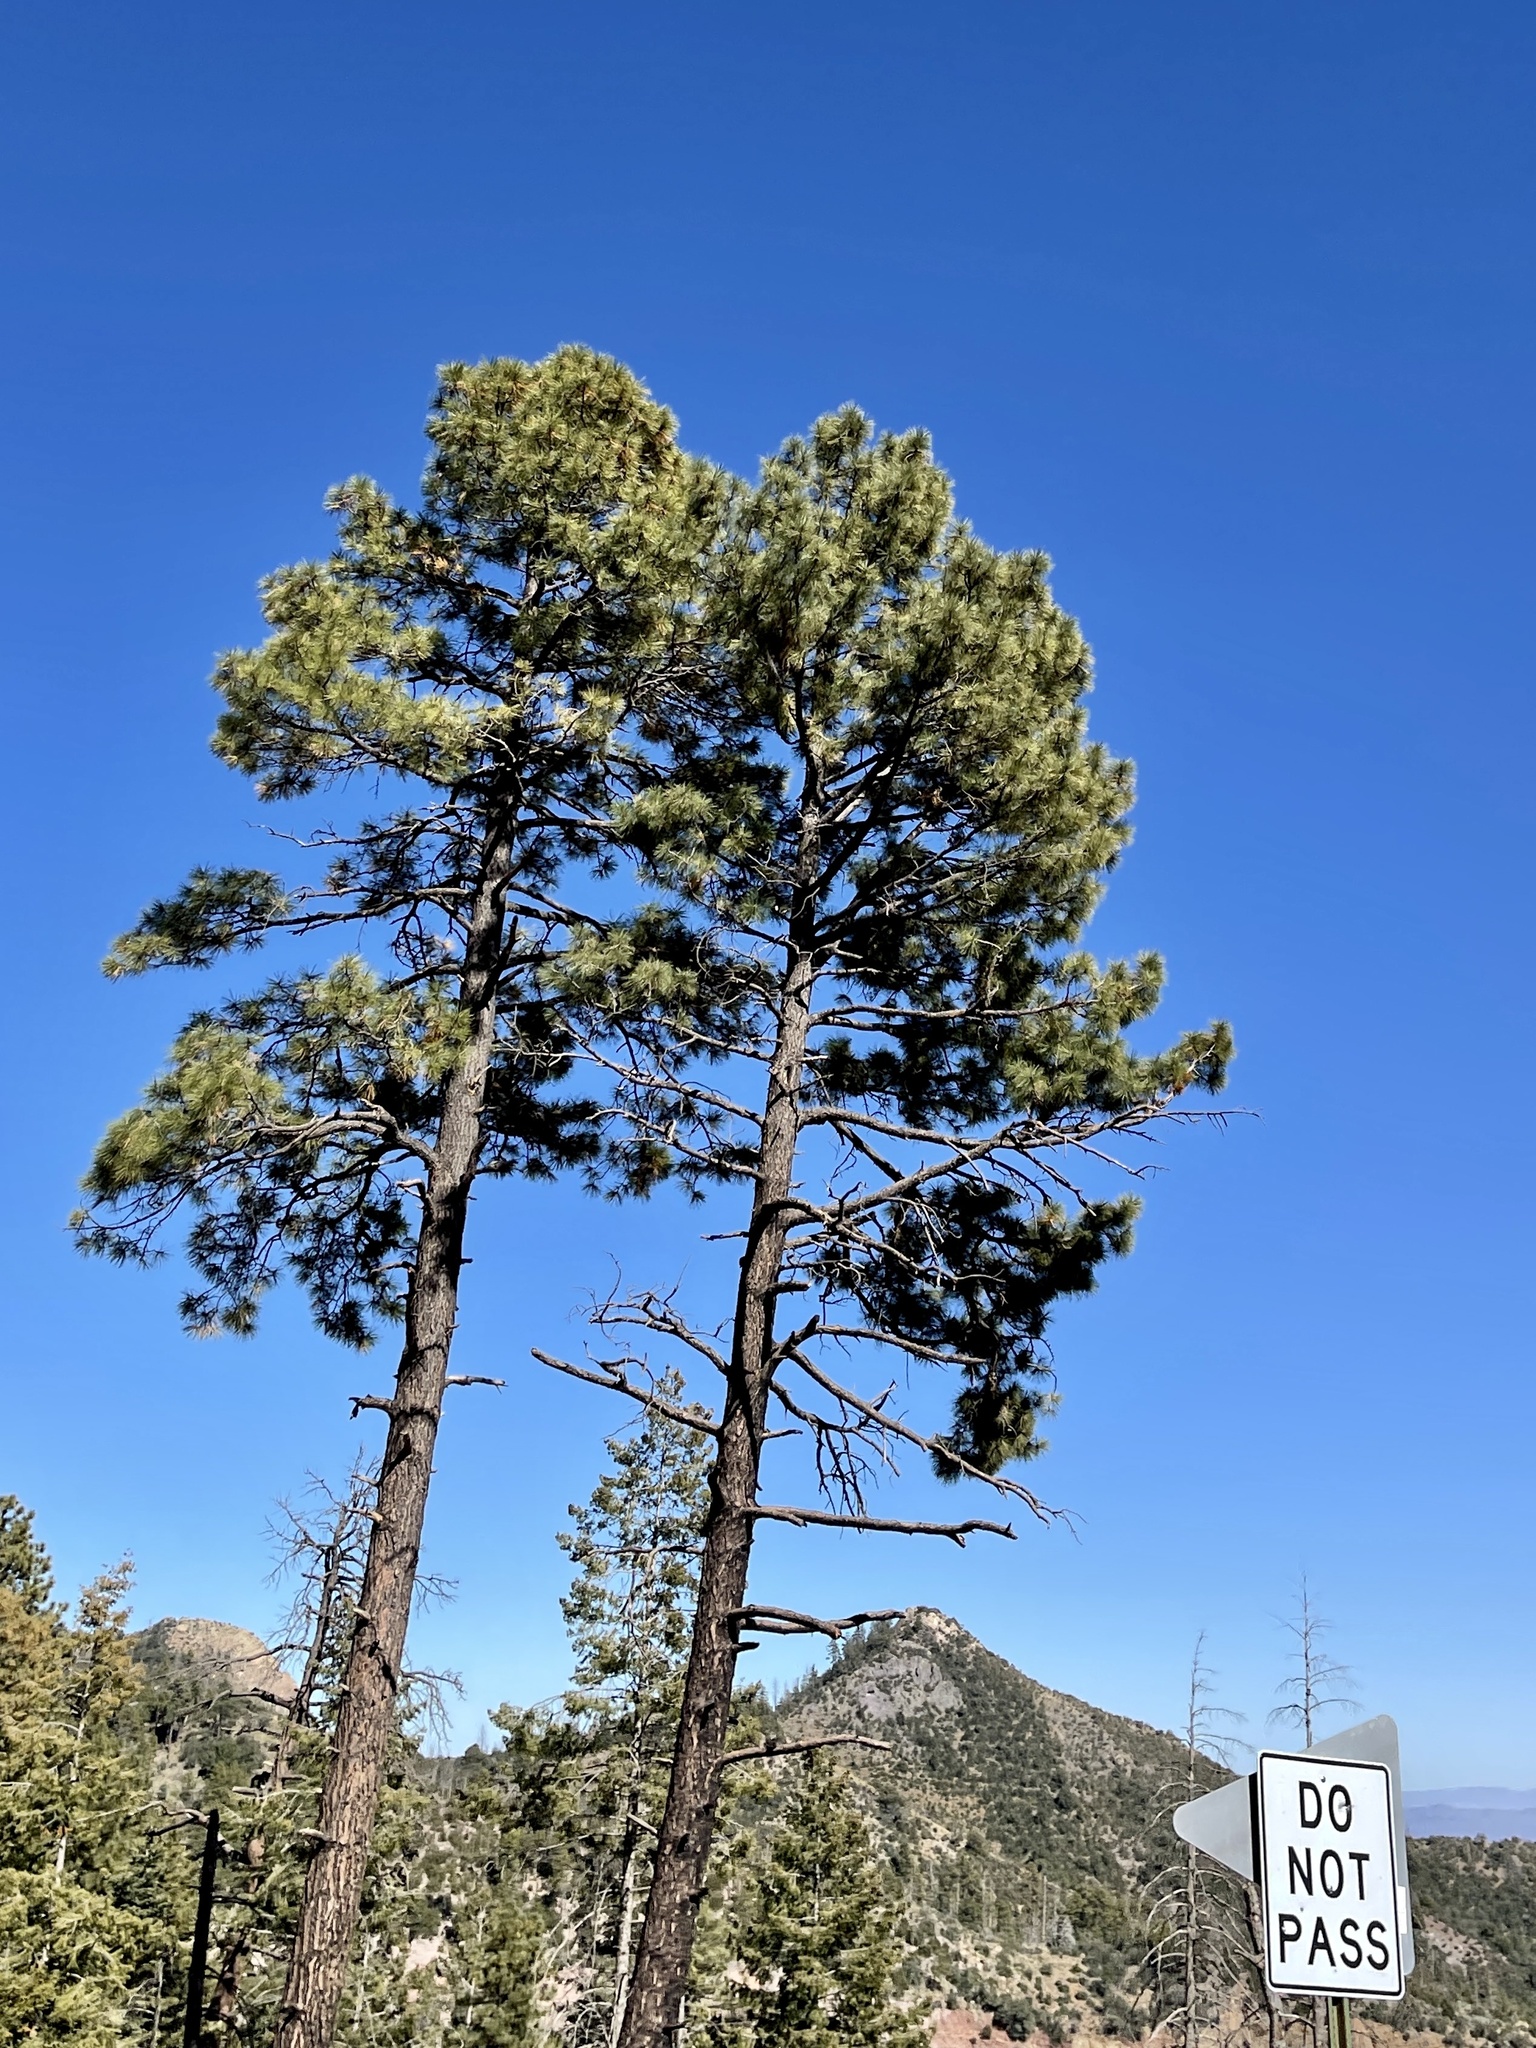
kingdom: Plantae
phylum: Tracheophyta
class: Pinopsida
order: Pinales
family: Pinaceae
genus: Pinus
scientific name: Pinus ponderosa
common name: Western yellow-pine
